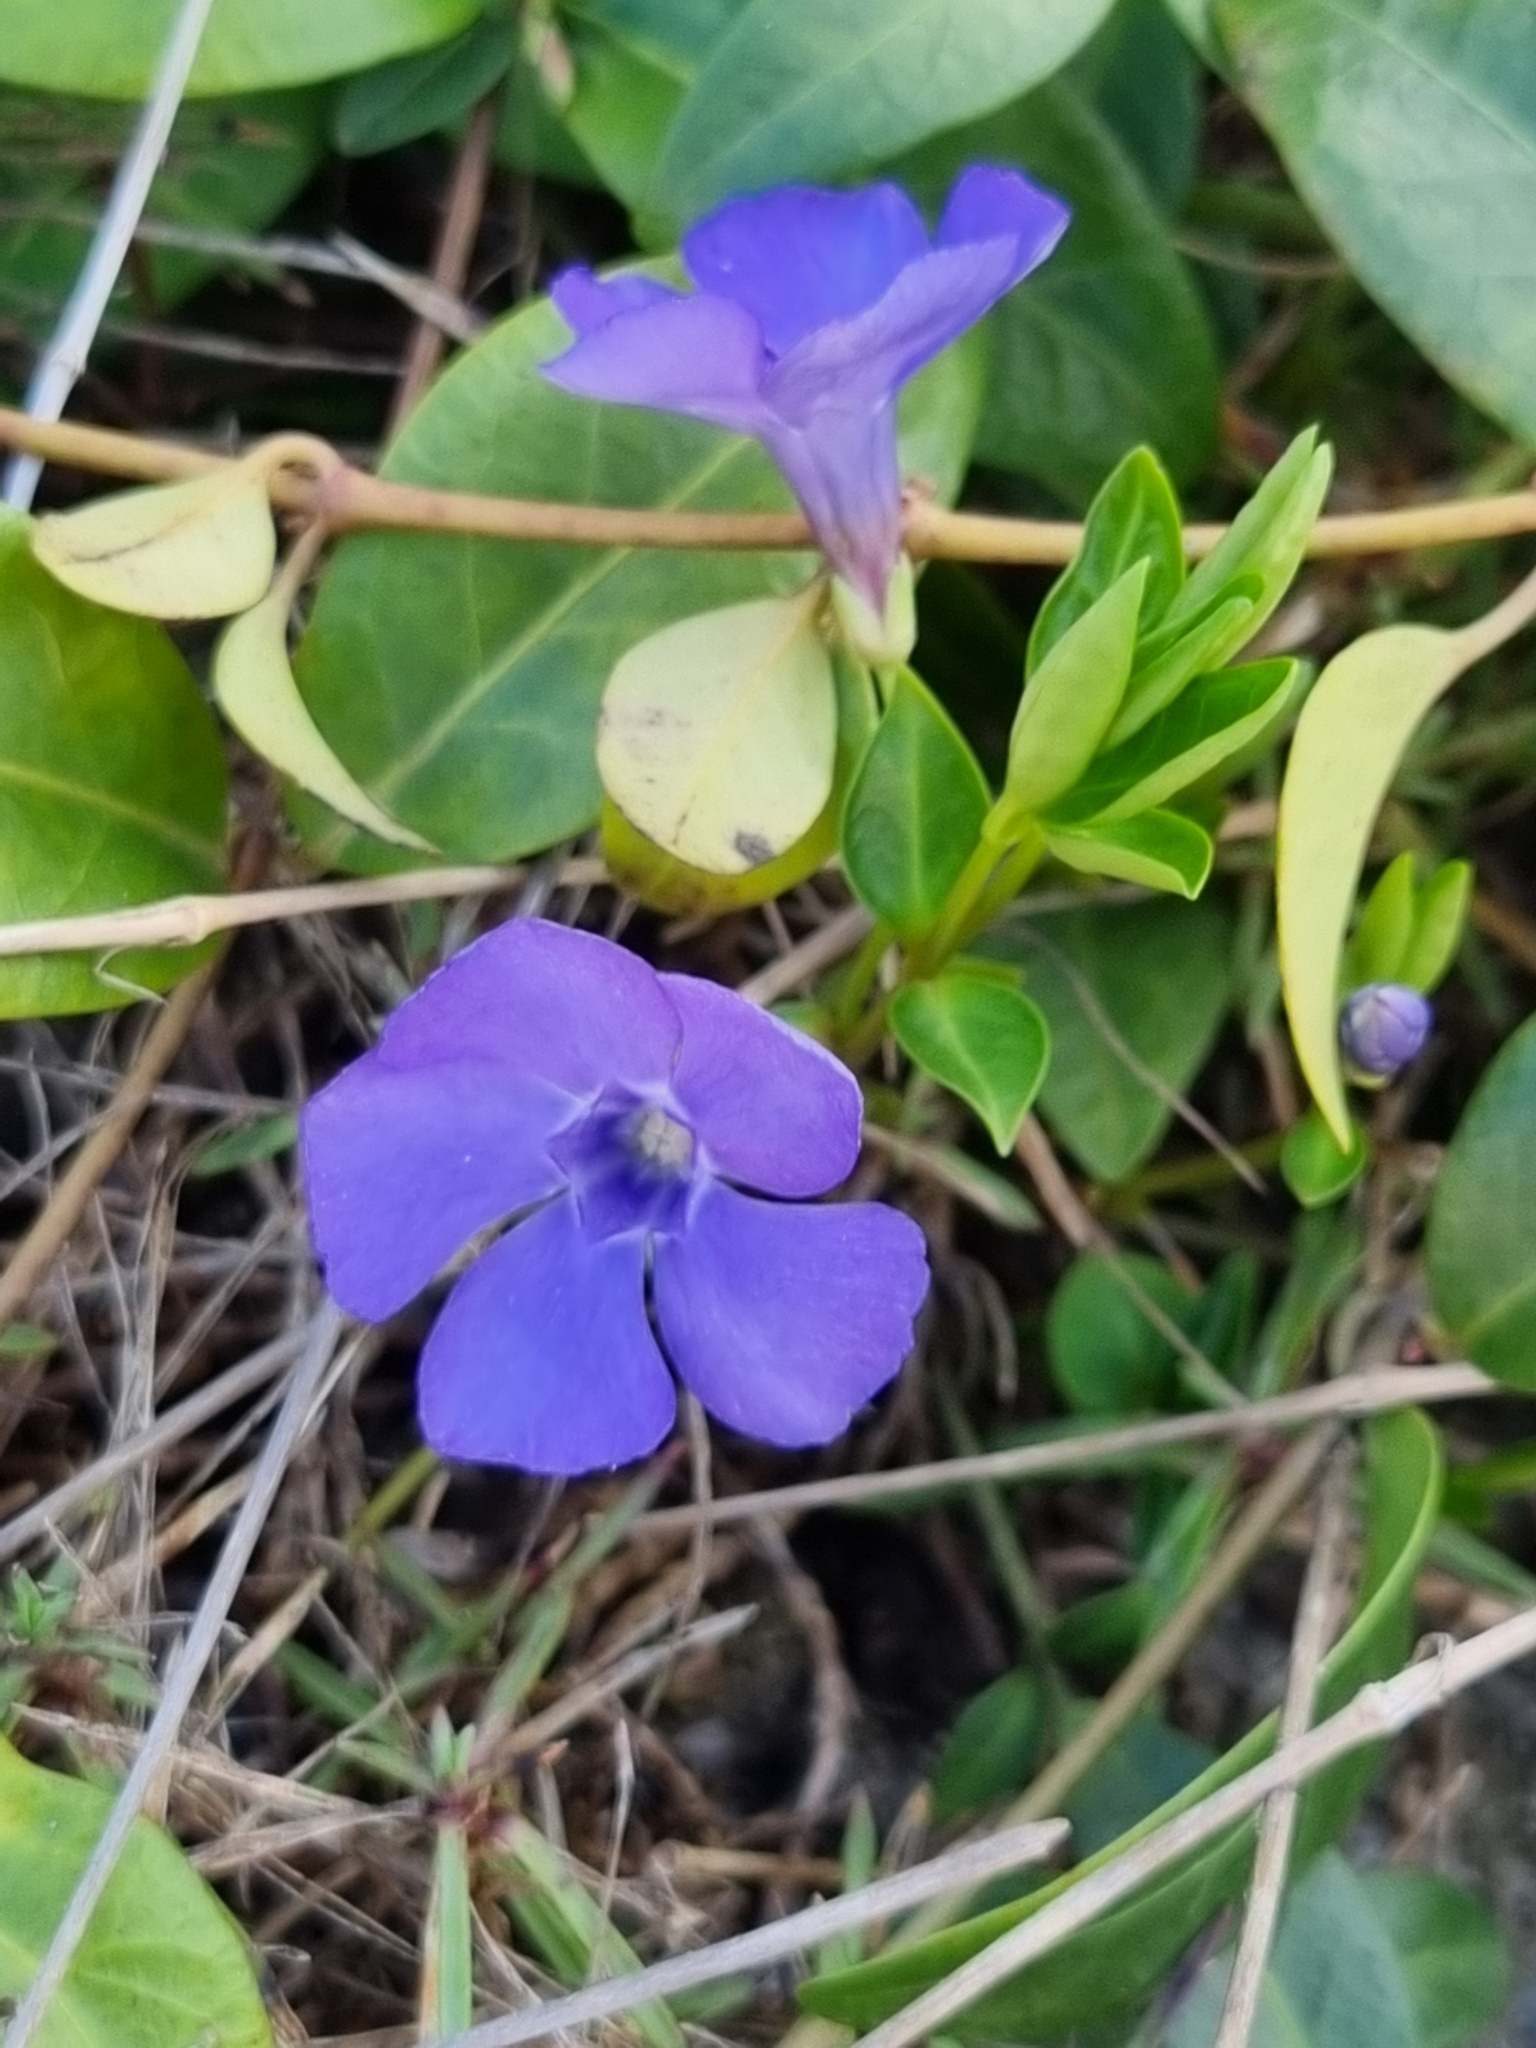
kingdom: Plantae
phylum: Tracheophyta
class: Magnoliopsida
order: Gentianales
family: Apocynaceae
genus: Vinca
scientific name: Vinca minor
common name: Lesser periwinkle
